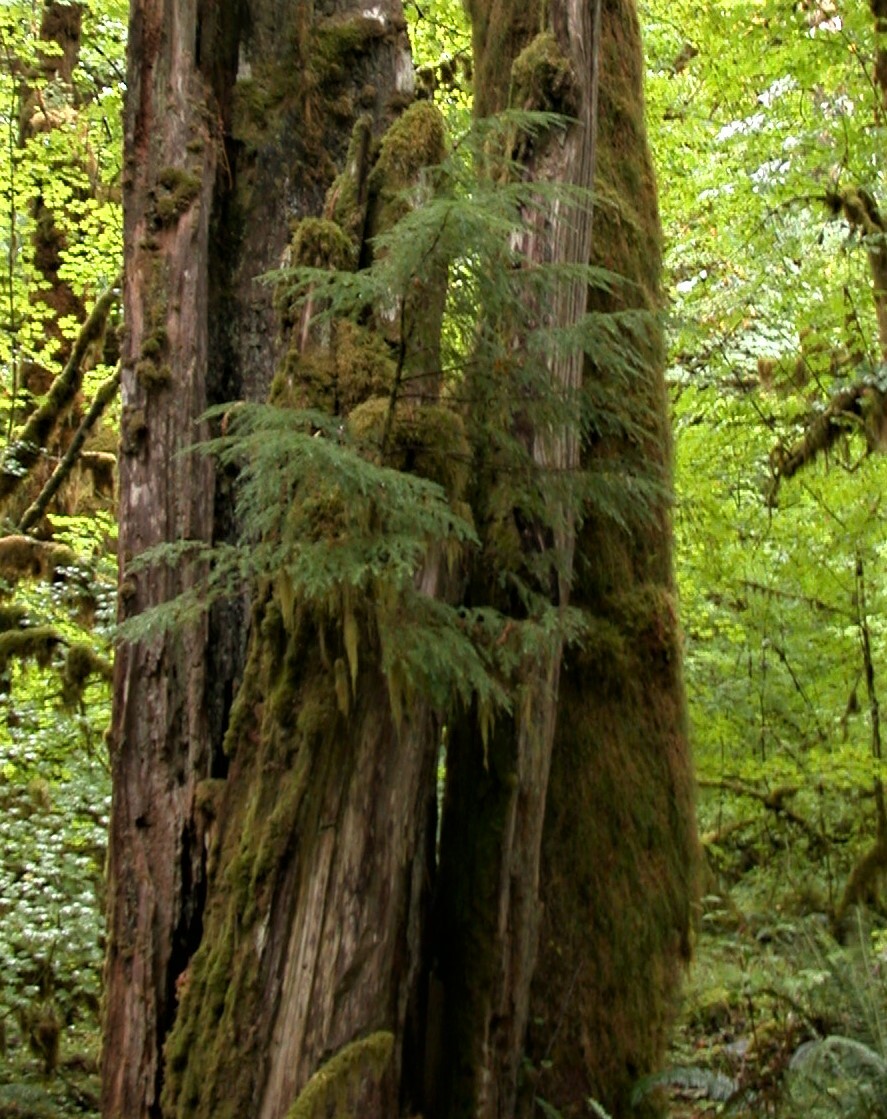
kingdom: Plantae
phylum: Tracheophyta
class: Pinopsida
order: Pinales
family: Cupressaceae
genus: Thuja
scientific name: Thuja plicata
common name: Western red-cedar
